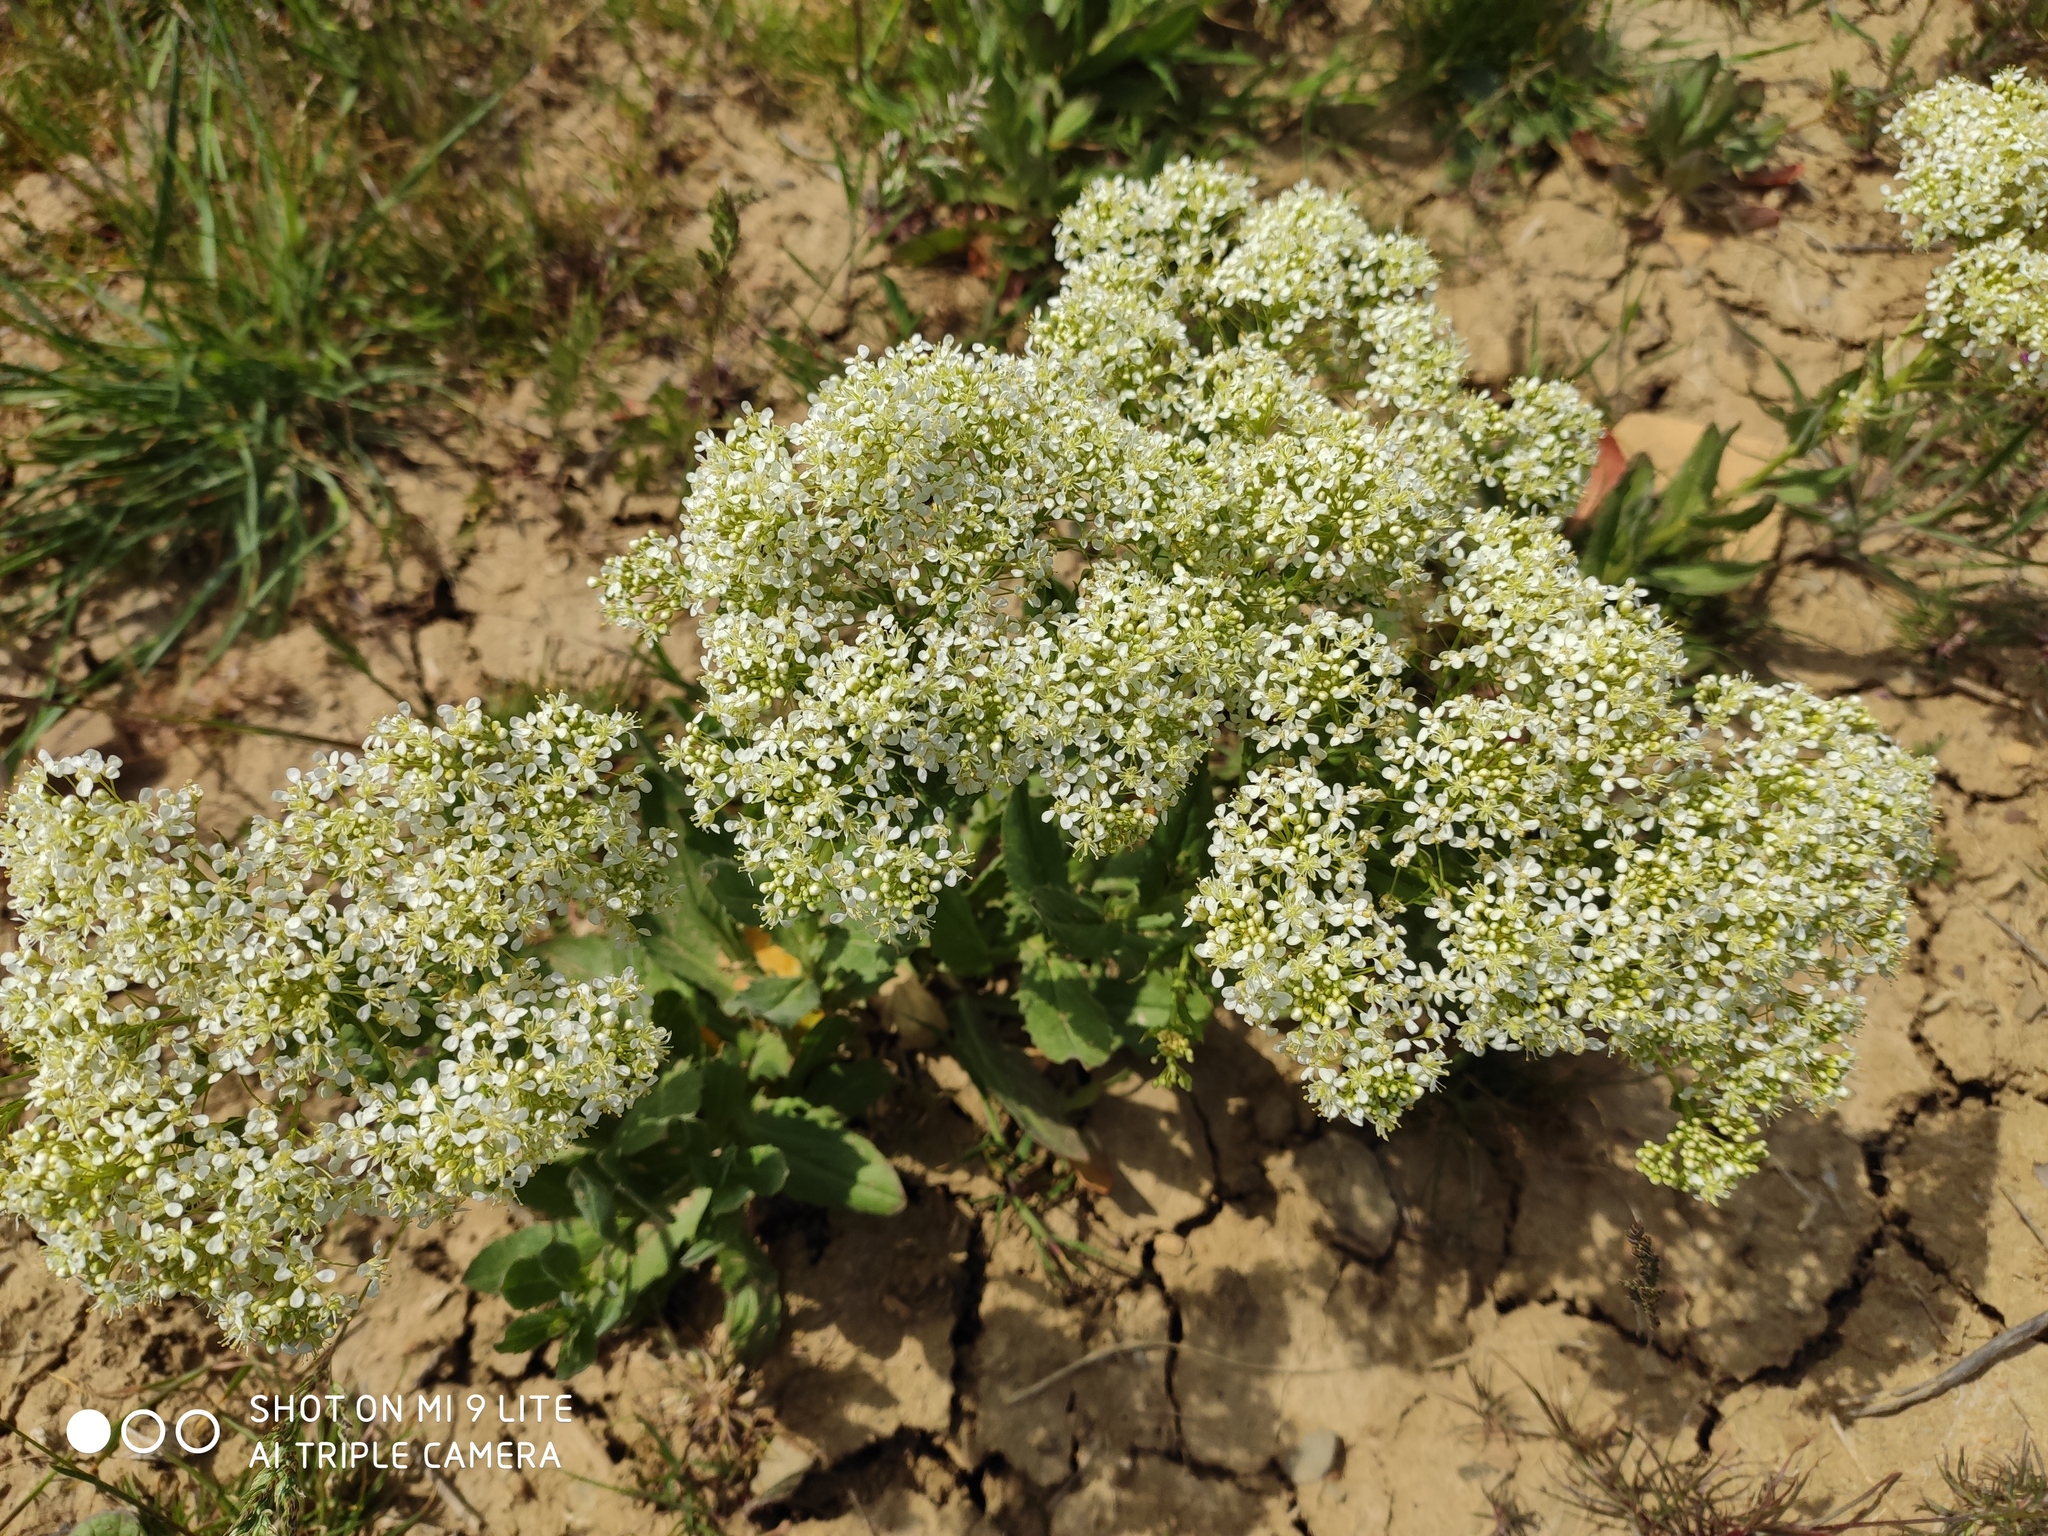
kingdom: Plantae
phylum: Tracheophyta
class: Magnoliopsida
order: Brassicales
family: Brassicaceae
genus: Lepidium
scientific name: Lepidium draba
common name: Hoary cress
